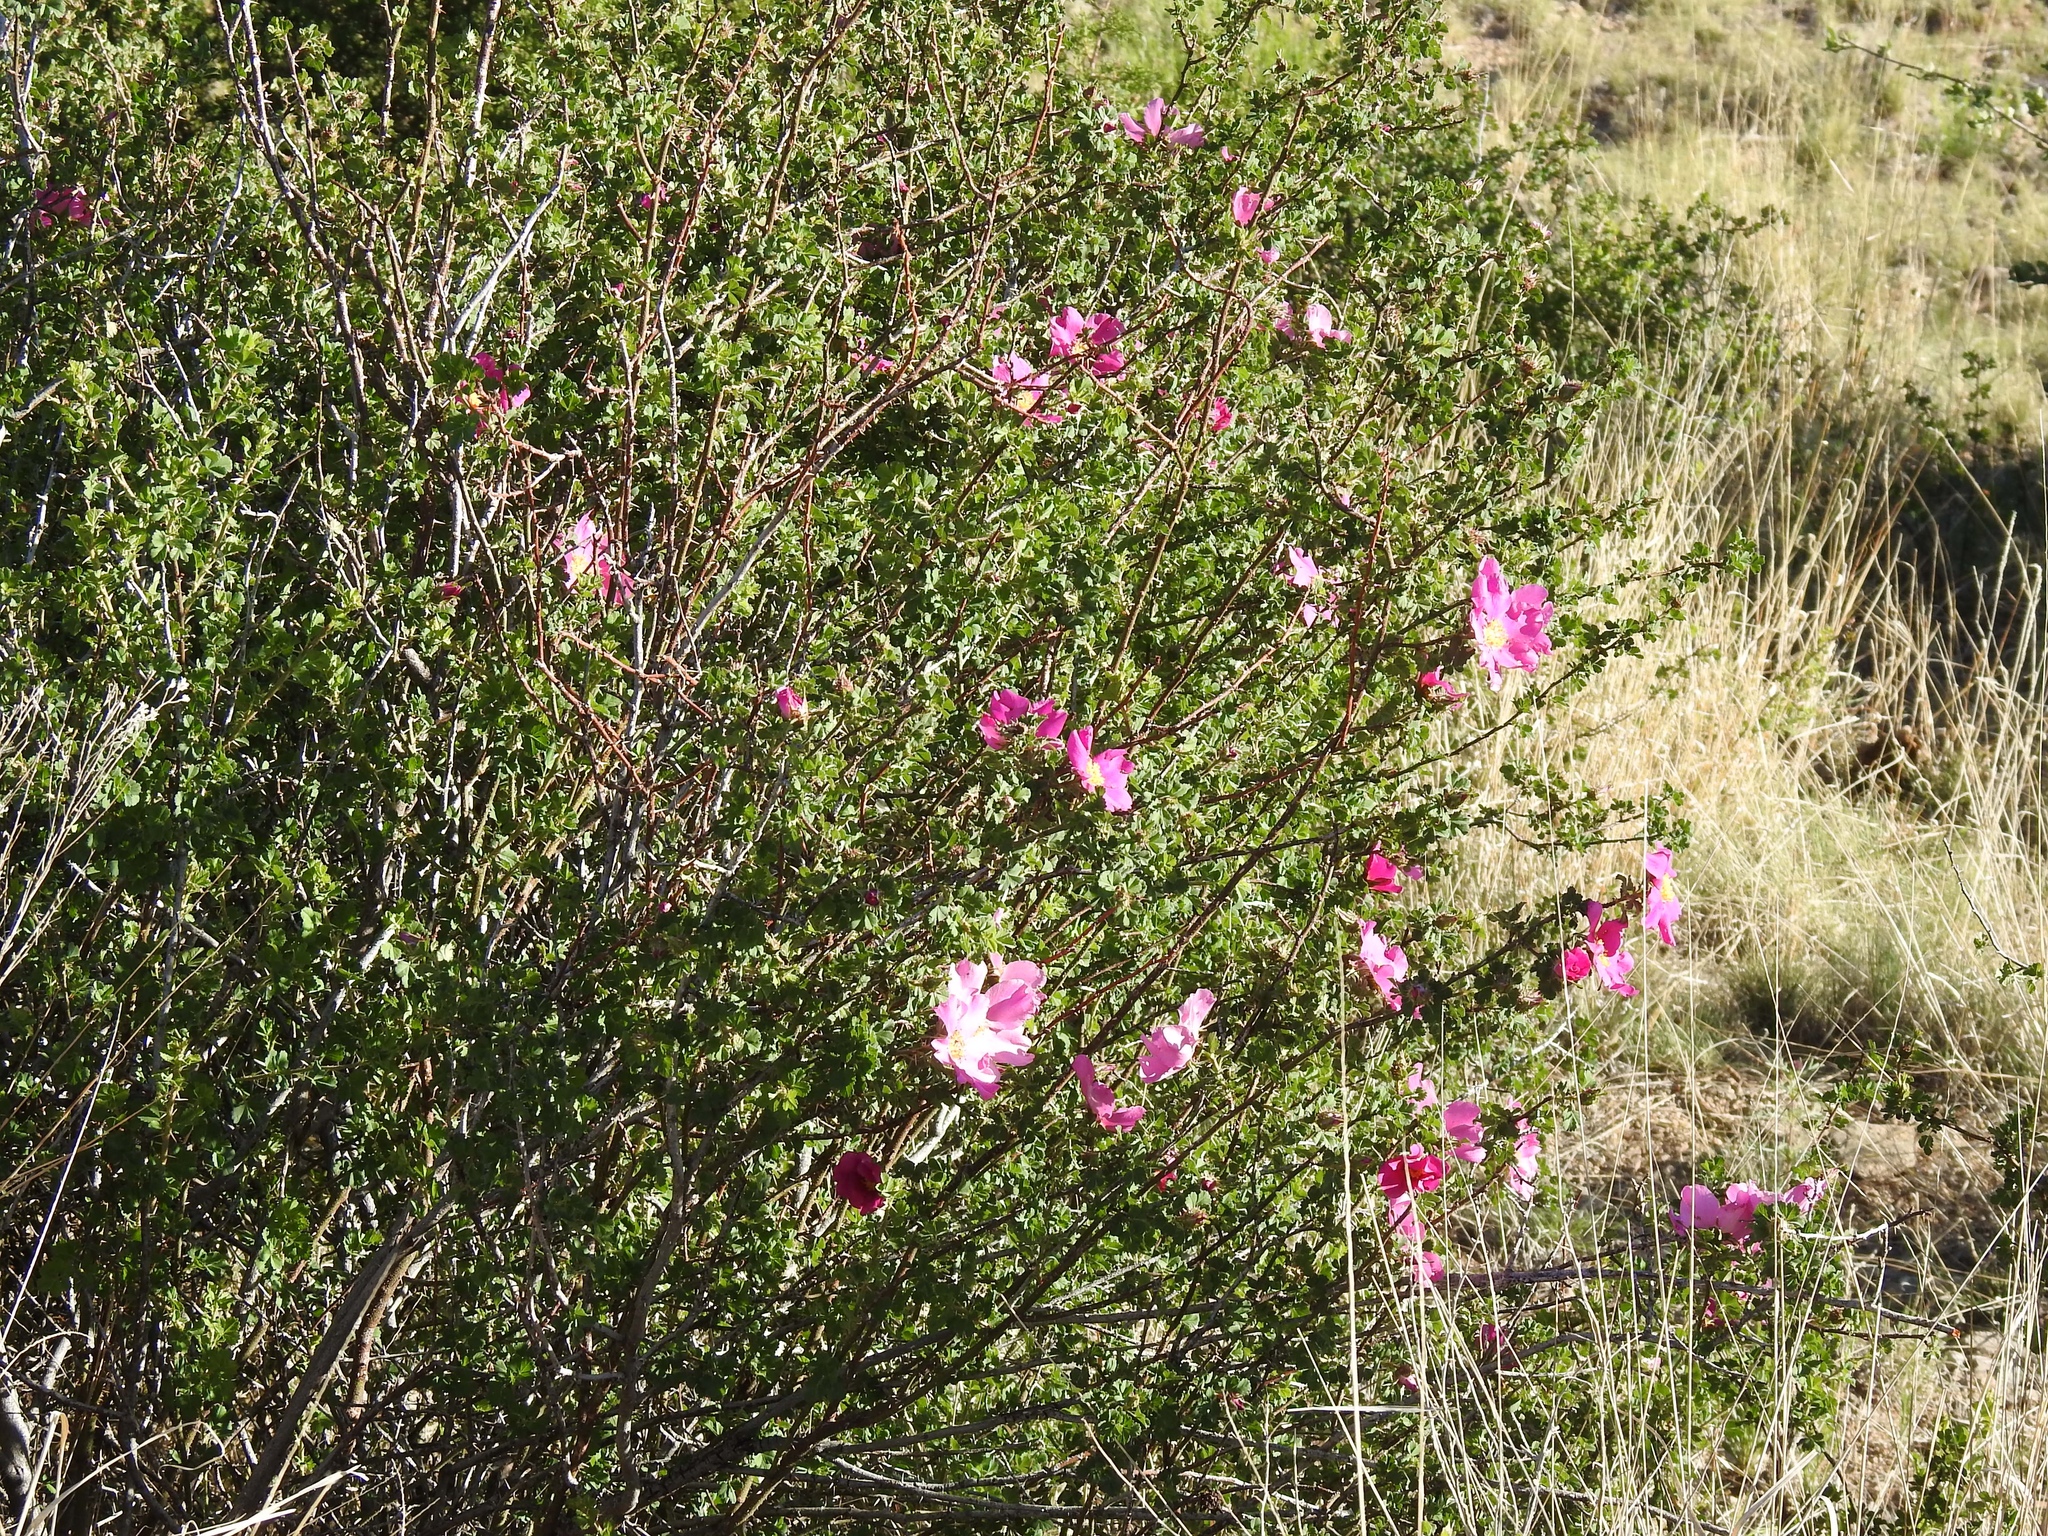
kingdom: Plantae
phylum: Tracheophyta
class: Magnoliopsida
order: Rosales
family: Rosaceae
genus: Rosa
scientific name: Rosa stellata
